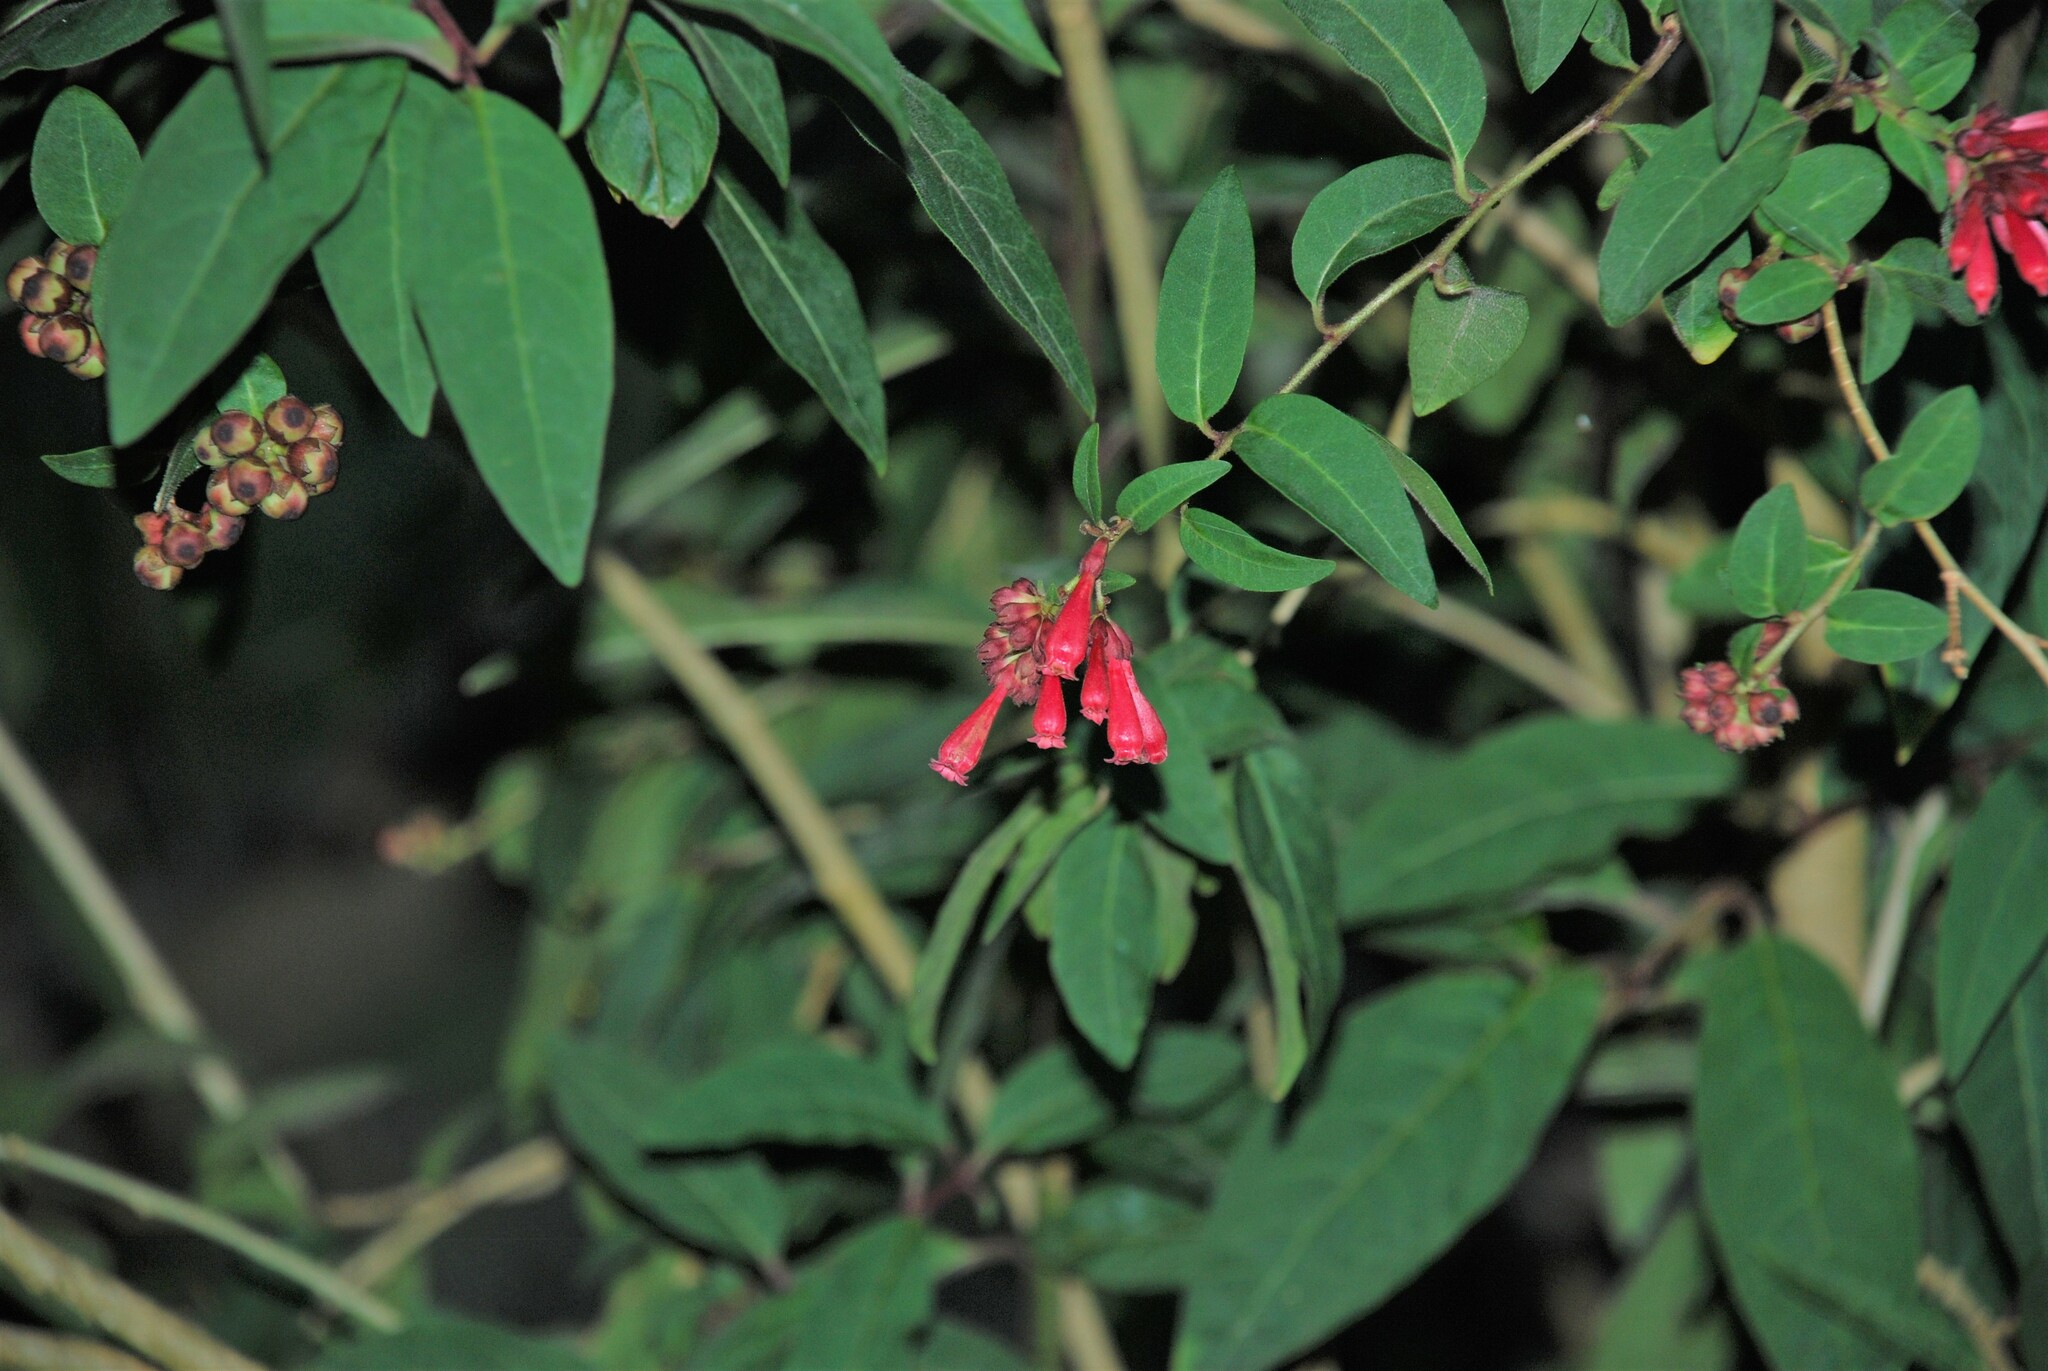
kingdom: Plantae
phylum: Tracheophyta
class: Magnoliopsida
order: Solanales
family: Solanaceae
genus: Cestrum
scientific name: Cestrum elegans
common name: Crimson cestrum
